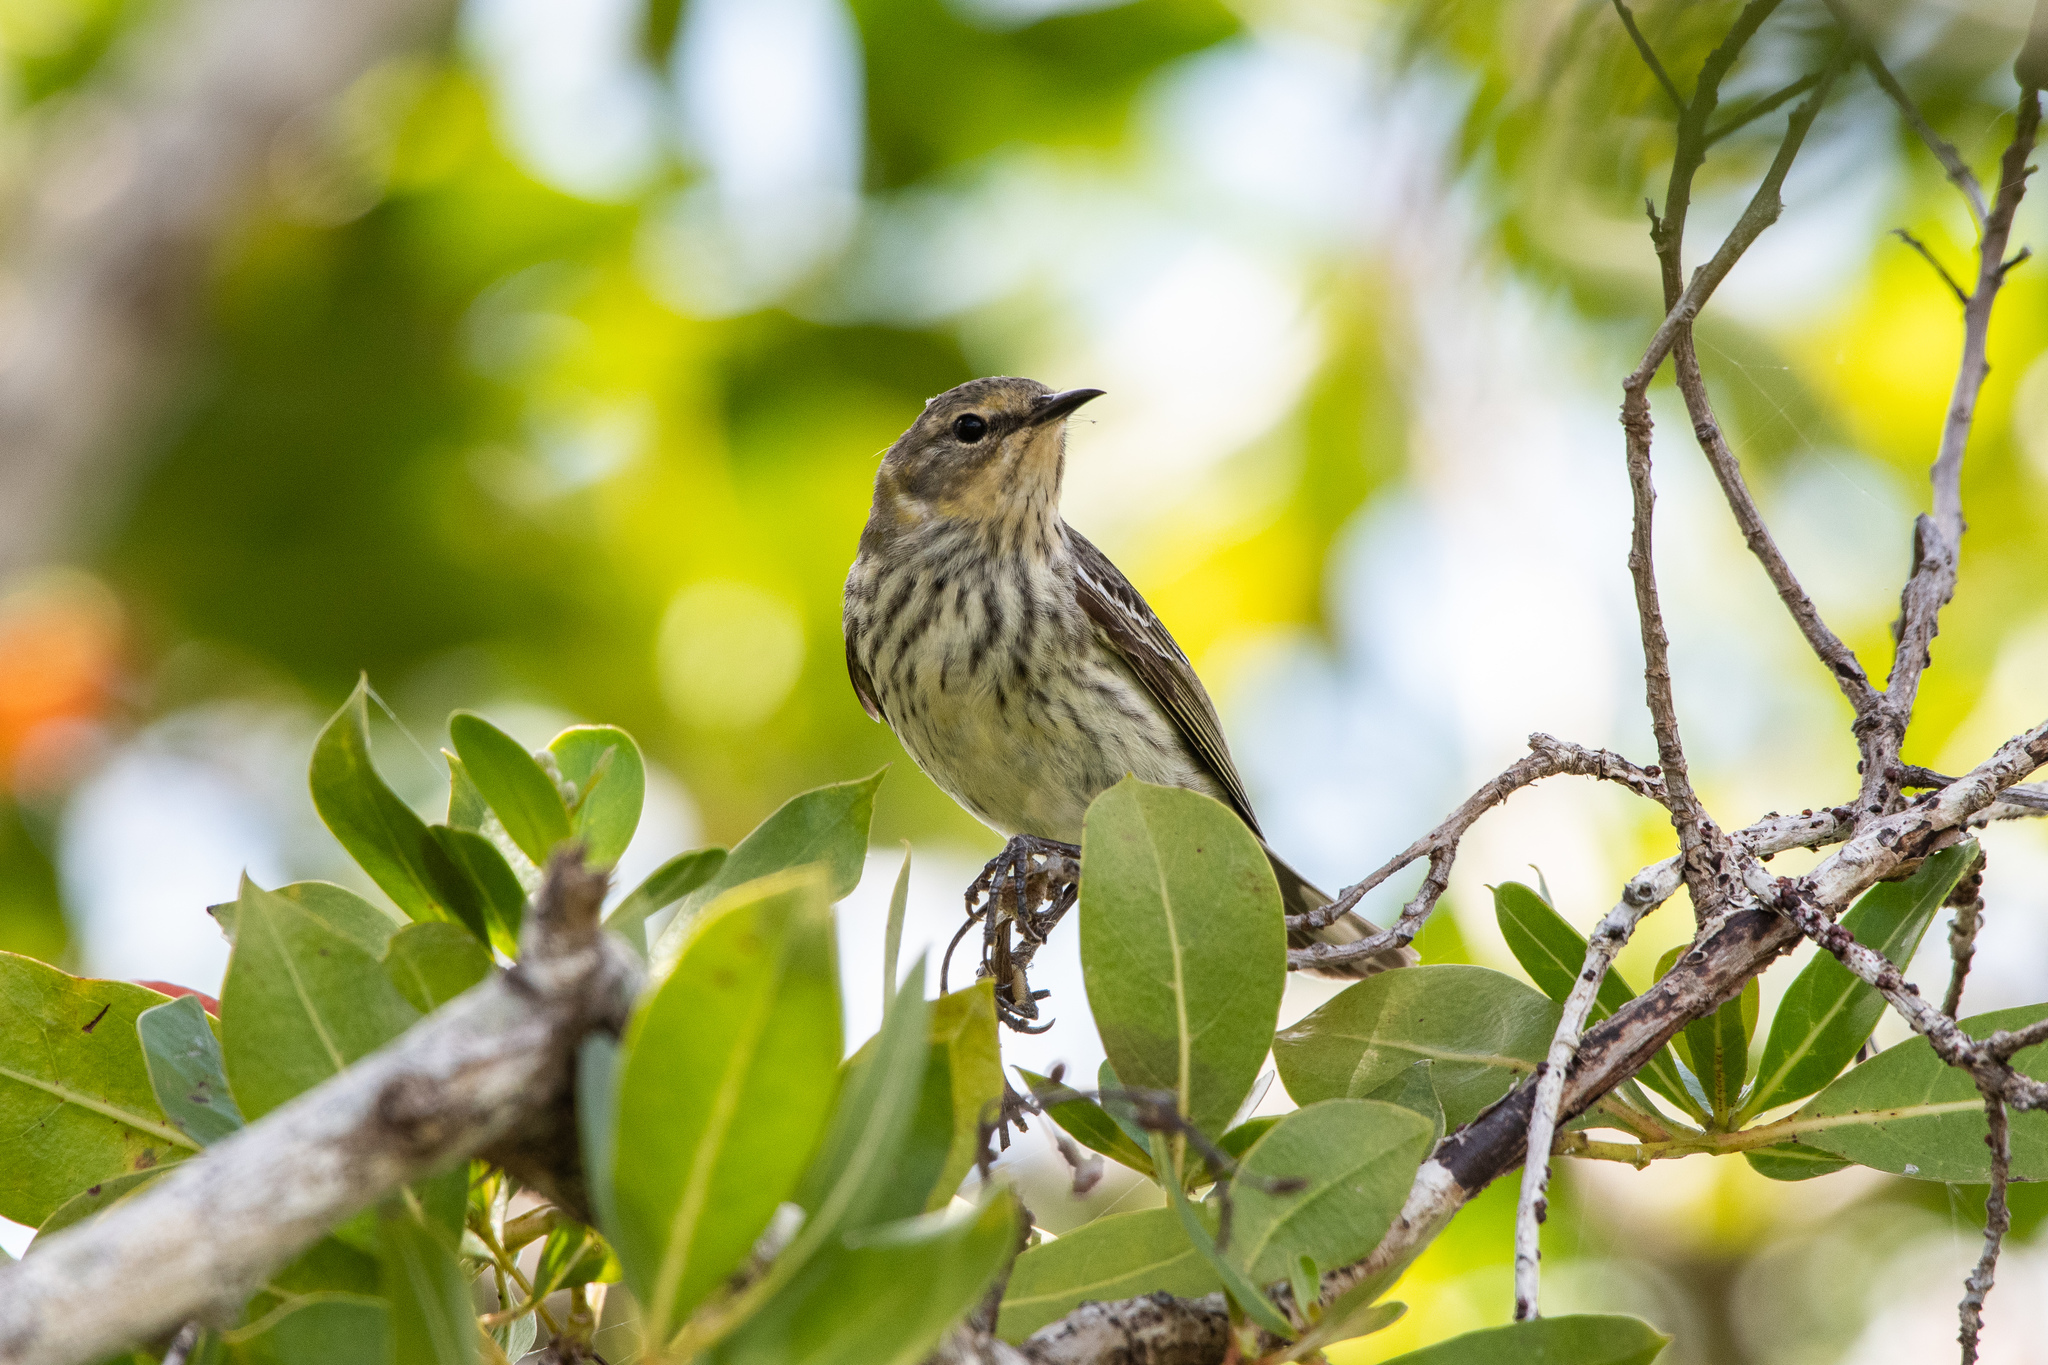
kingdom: Animalia
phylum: Chordata
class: Aves
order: Passeriformes
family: Parulidae
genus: Setophaga
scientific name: Setophaga tigrina
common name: Cape may warbler
